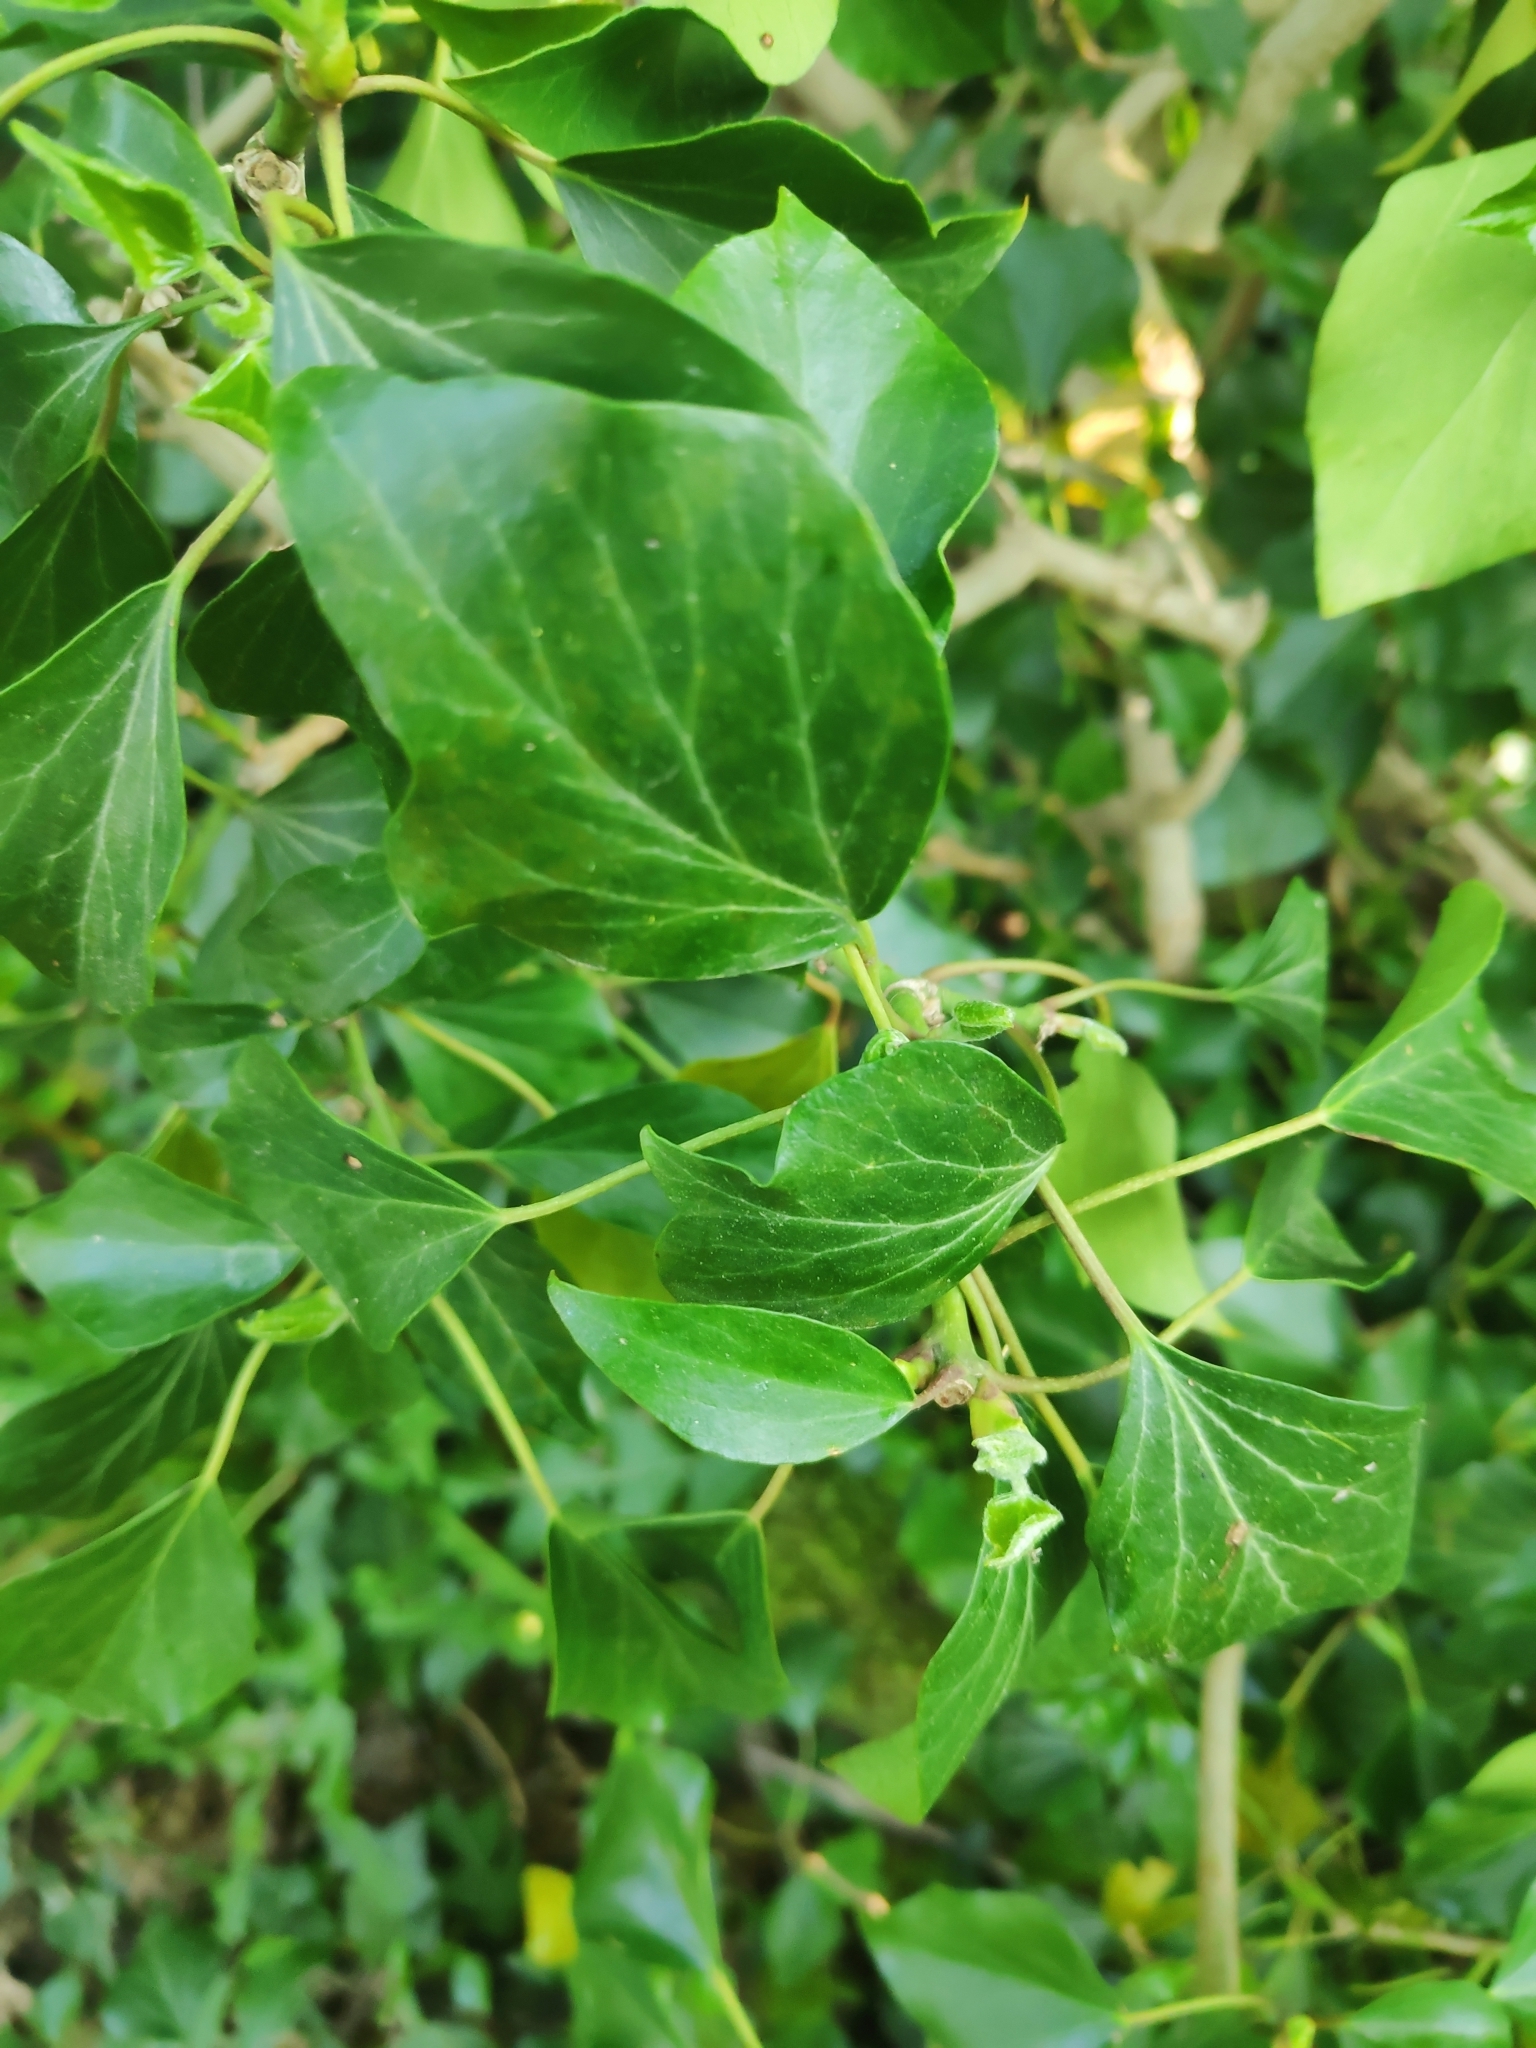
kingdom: Plantae
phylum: Tracheophyta
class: Magnoliopsida
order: Apiales
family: Araliaceae
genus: Hedera
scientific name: Hedera helix
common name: Ivy
